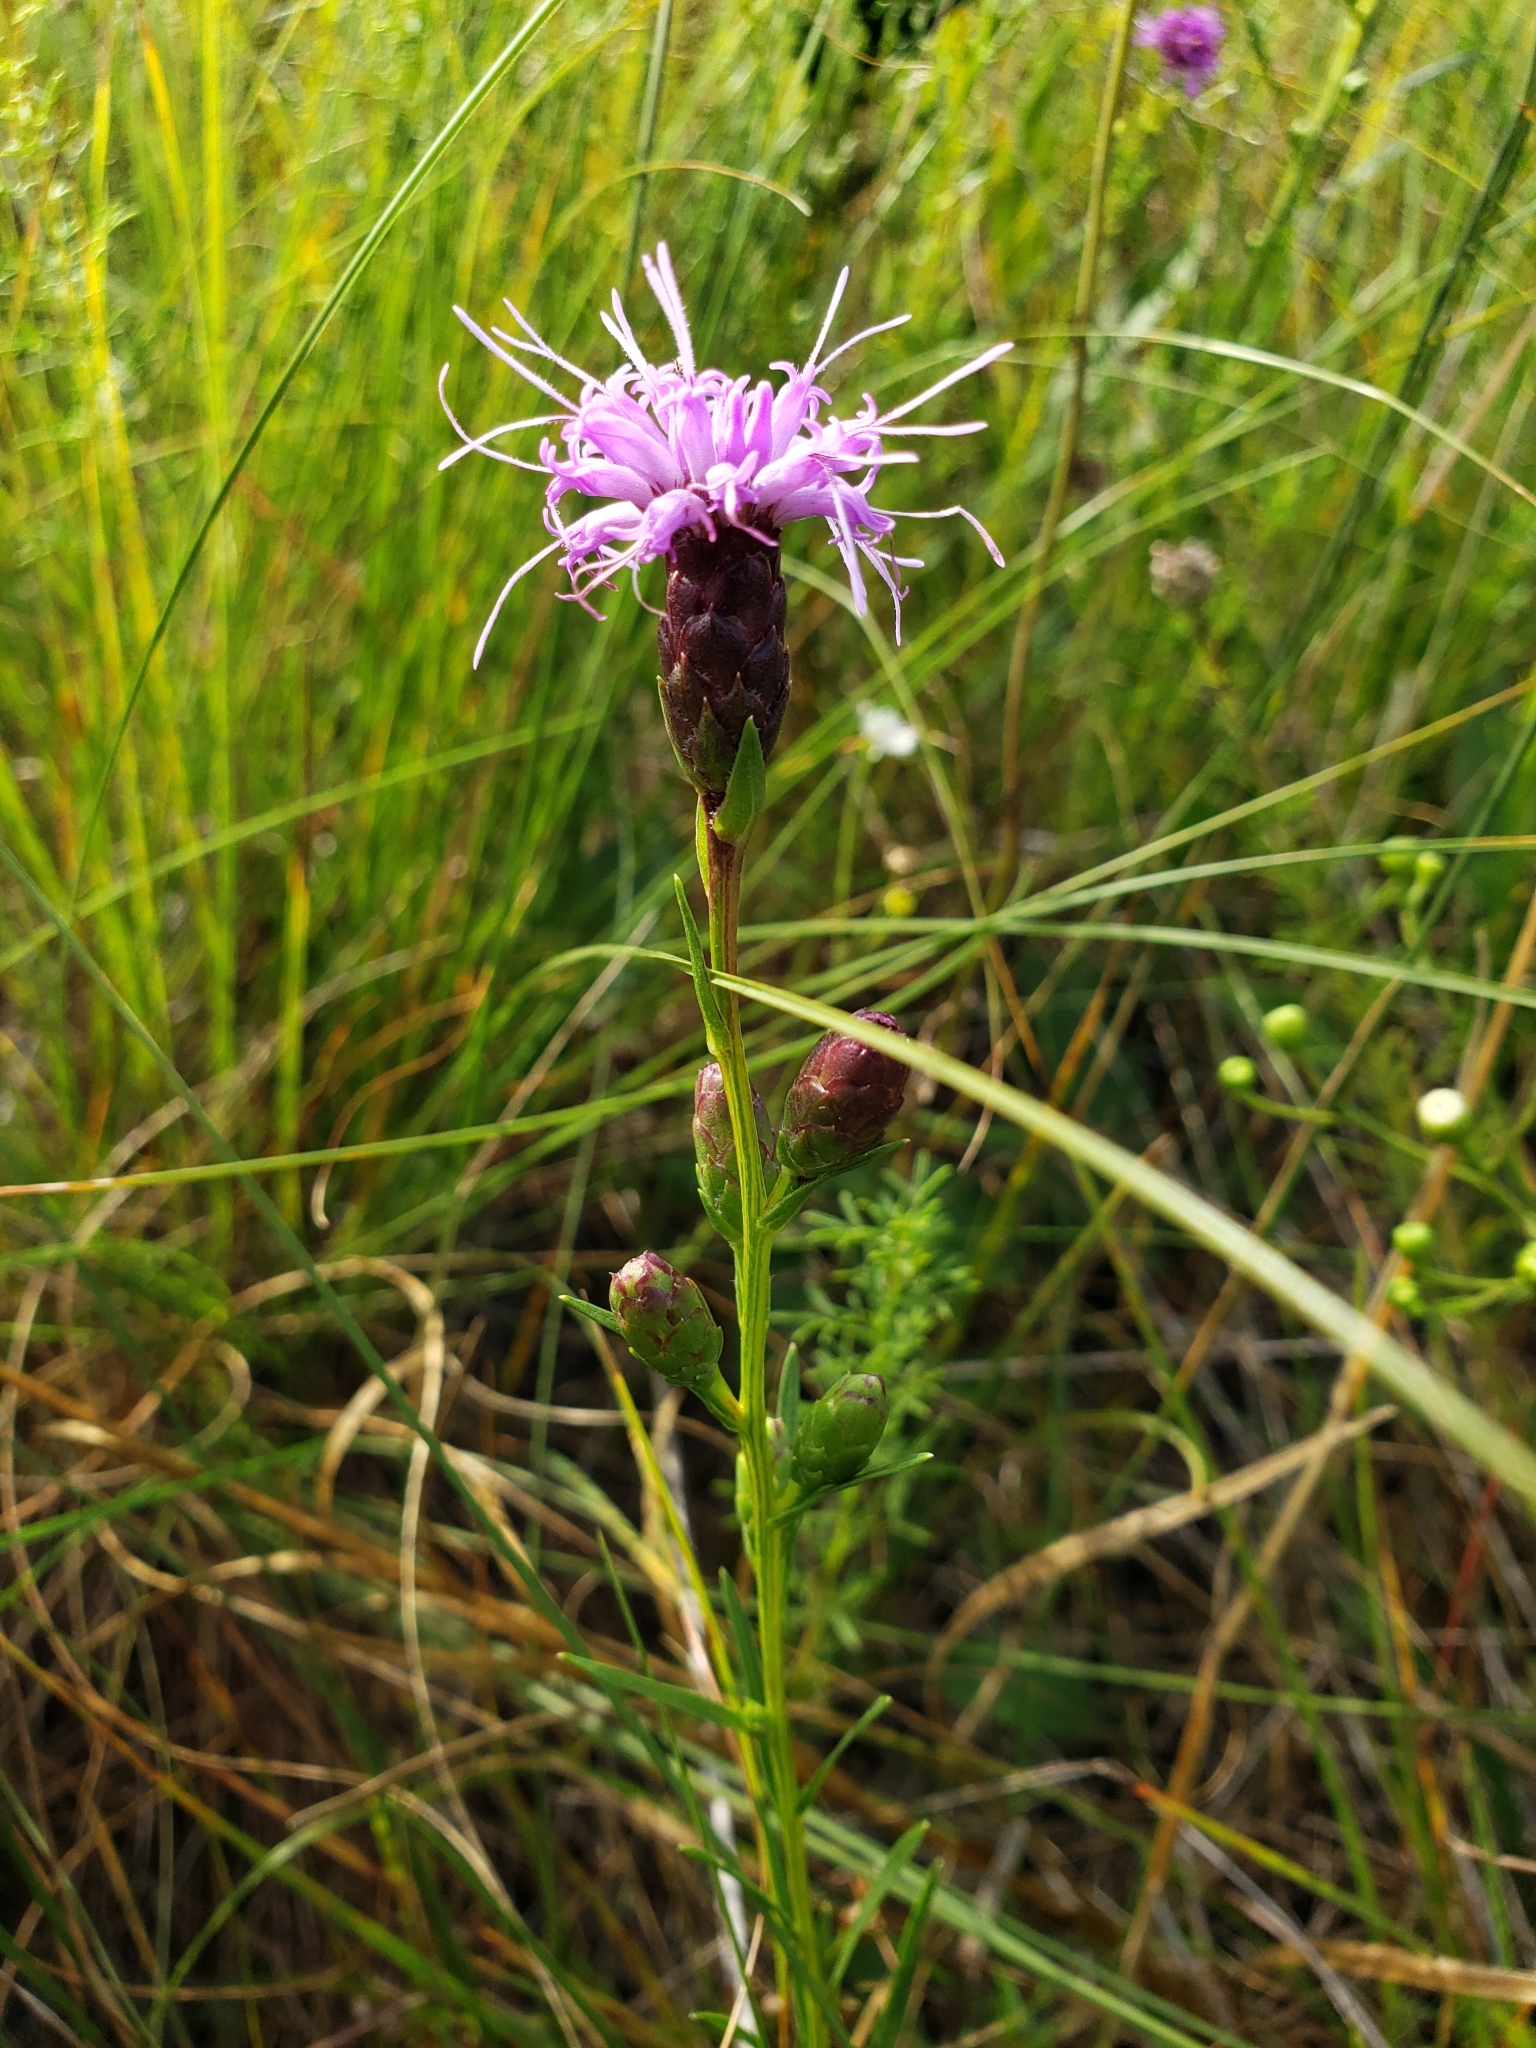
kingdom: Plantae
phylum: Tracheophyta
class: Magnoliopsida
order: Asterales
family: Asteraceae
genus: Liatris
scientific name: Liatris cylindracea
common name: Few-head blazingstar
